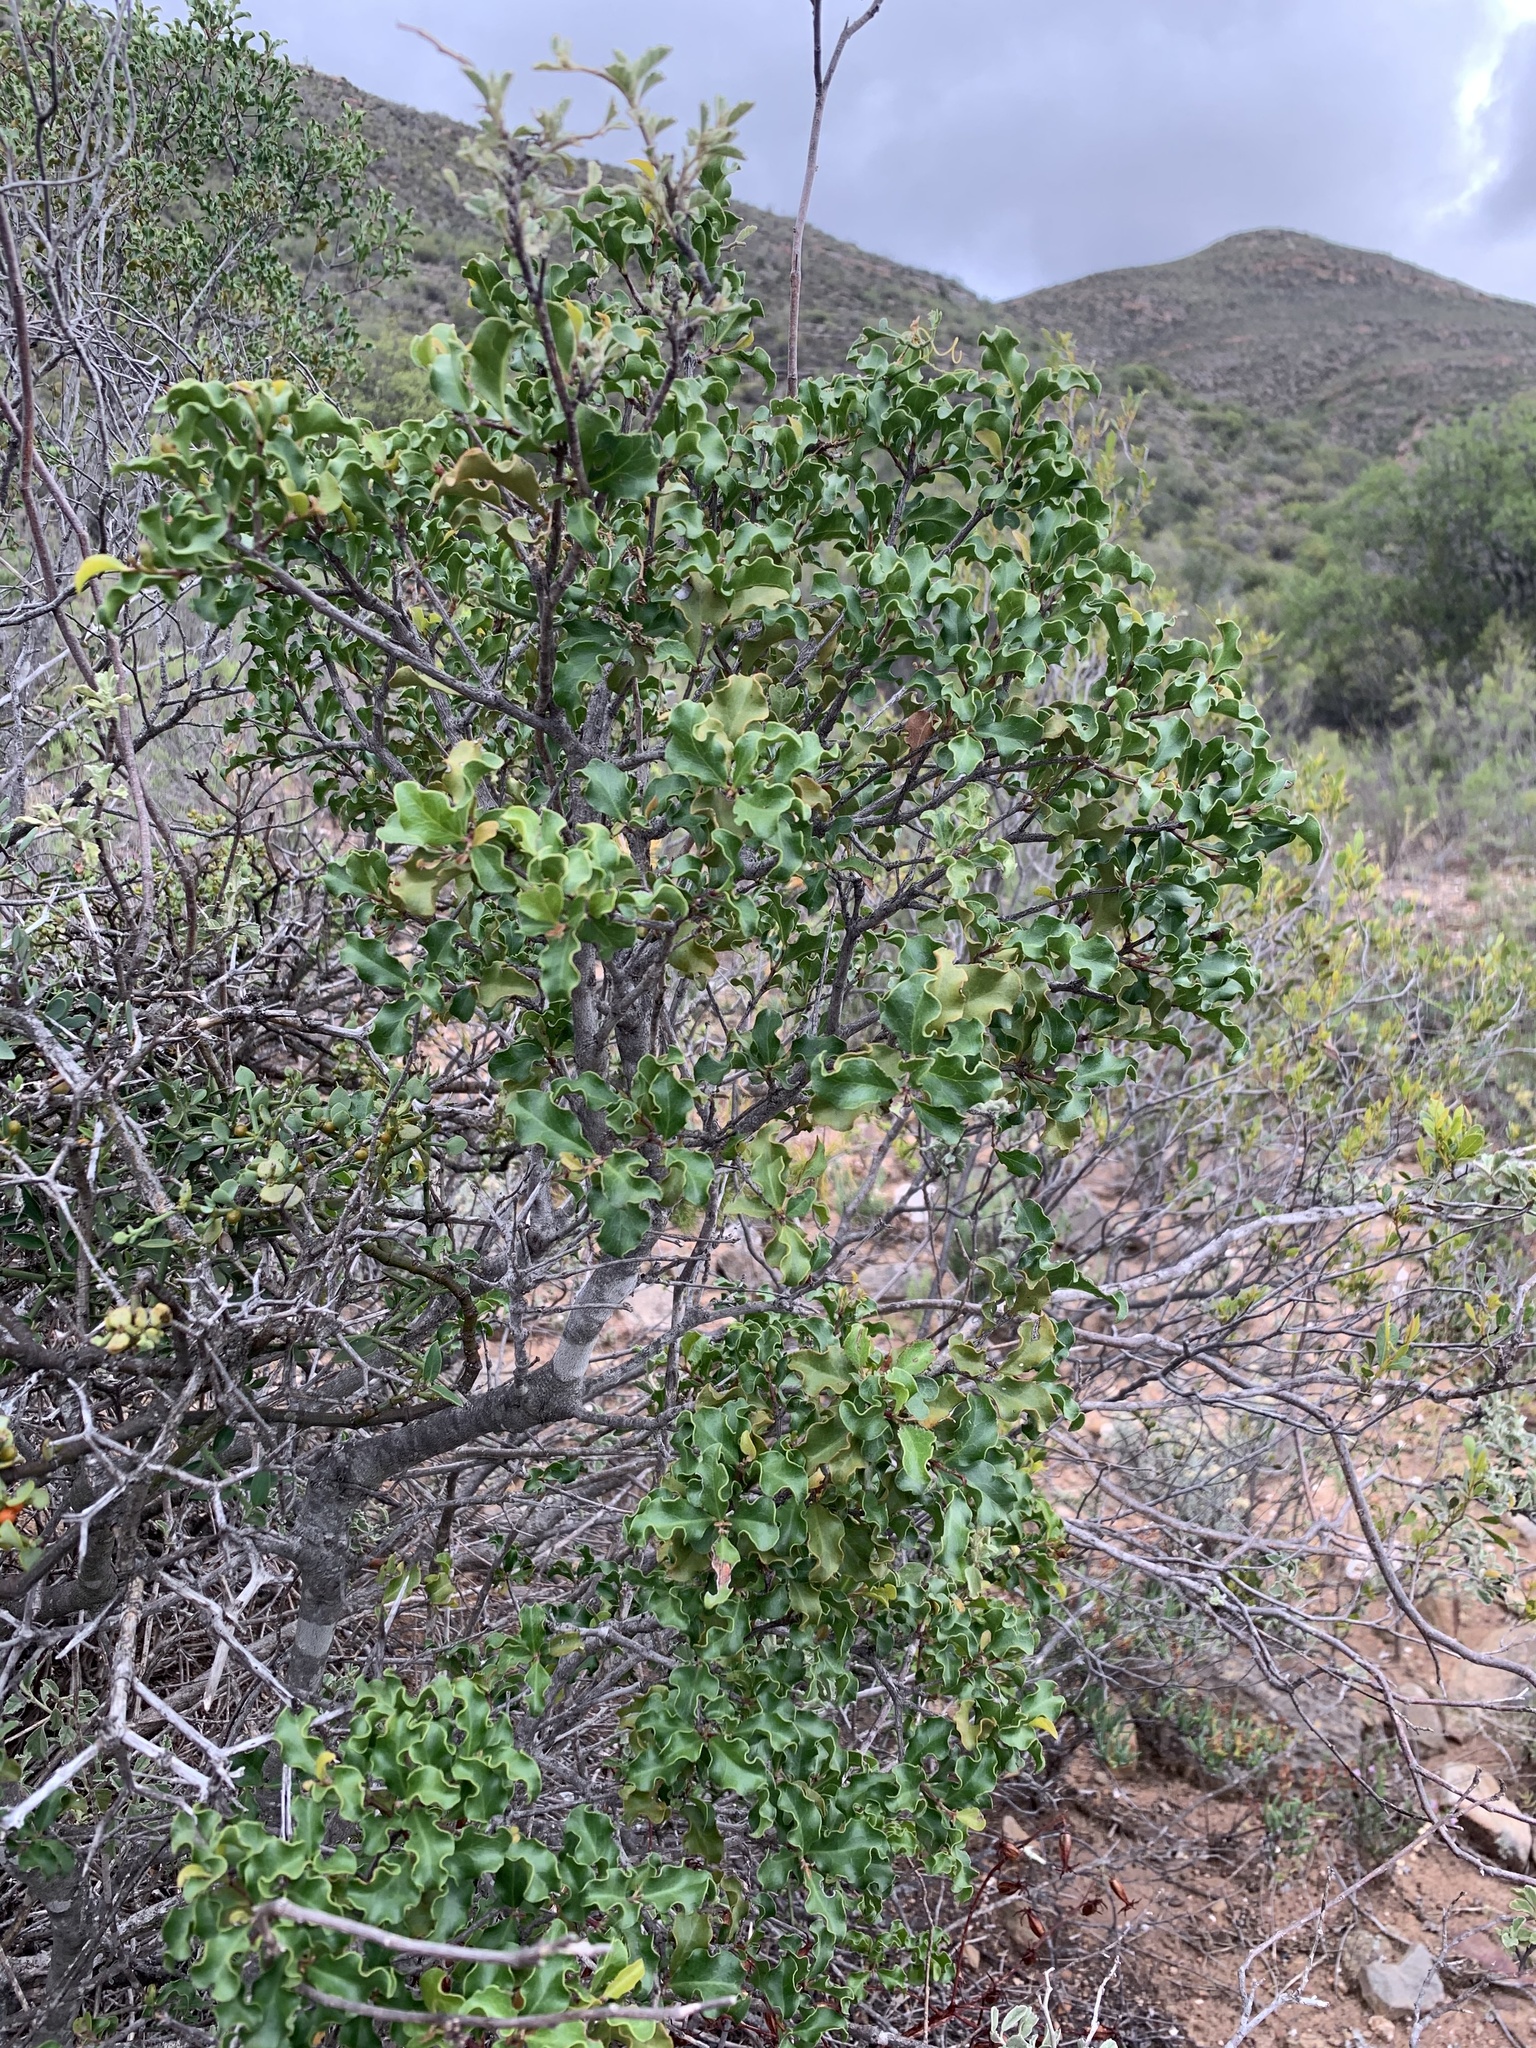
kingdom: Plantae
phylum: Tracheophyta
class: Magnoliopsida
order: Ericales
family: Ebenaceae
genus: Euclea
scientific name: Euclea undulata
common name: Small-leaved guarri
